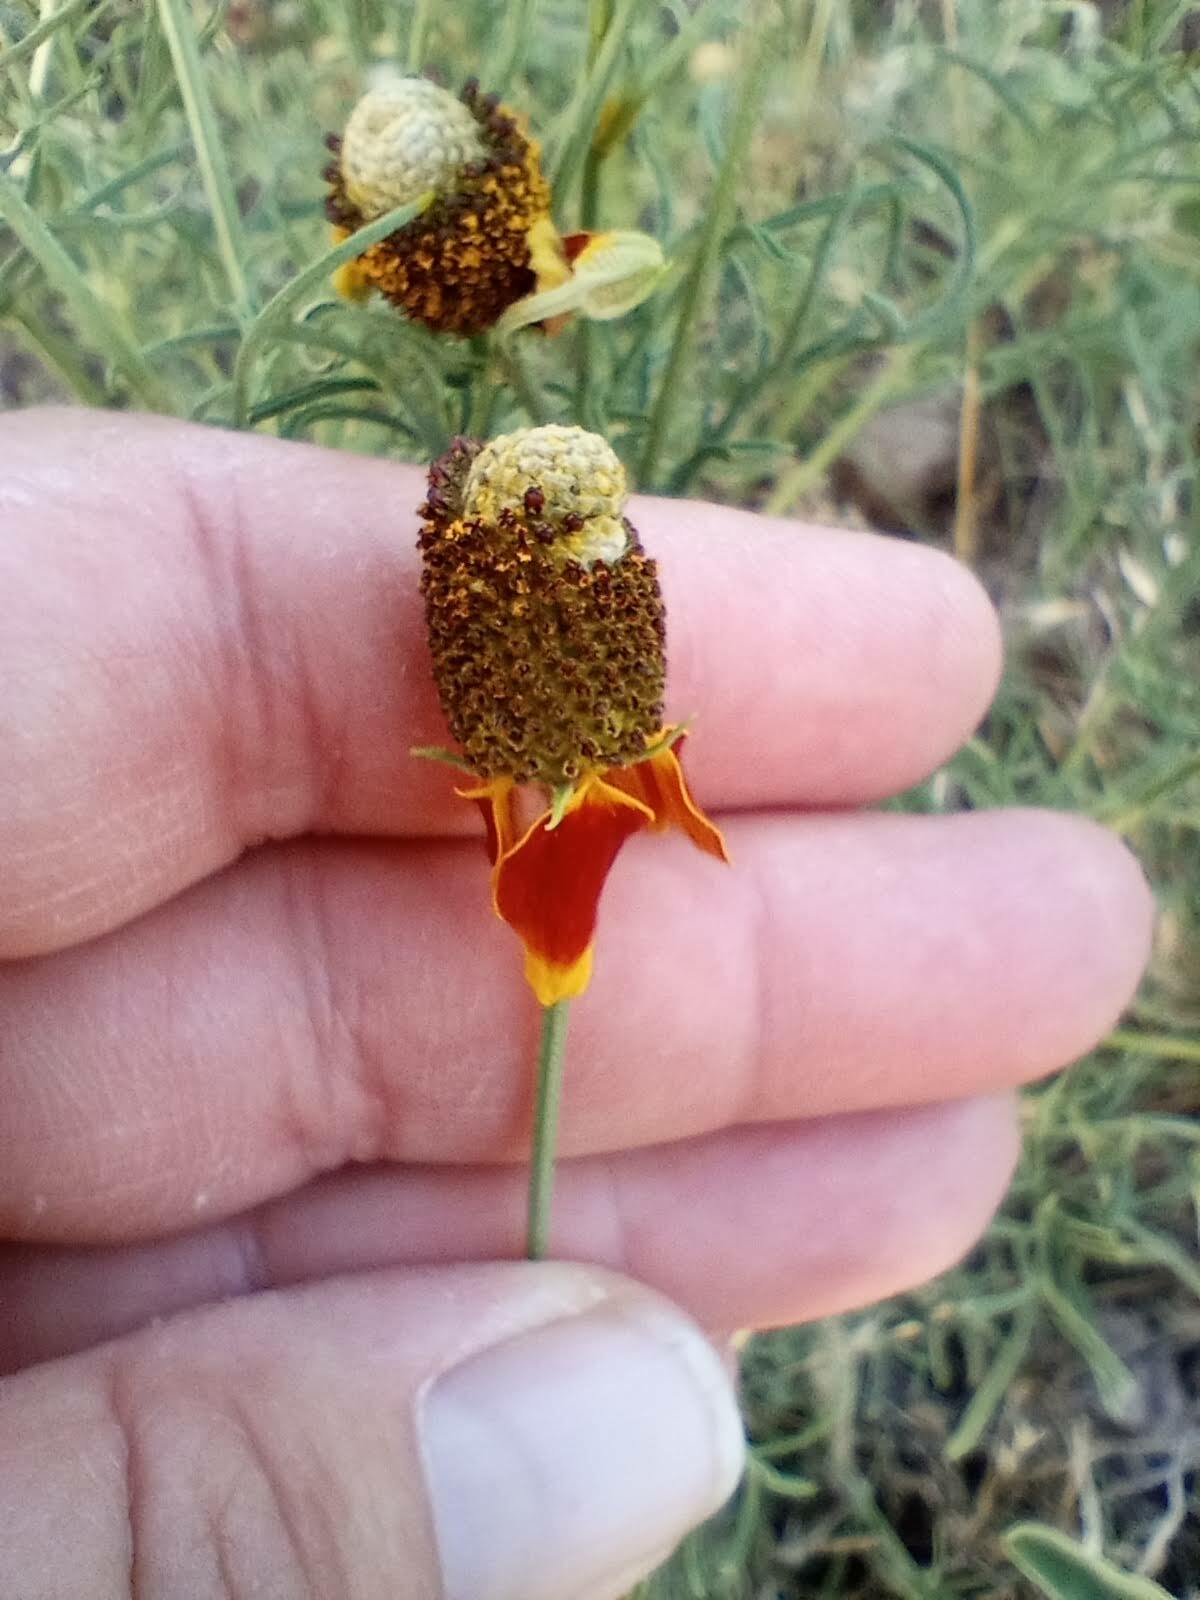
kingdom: Plantae
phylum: Tracheophyta
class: Magnoliopsida
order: Asterales
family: Asteraceae
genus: Ratibida
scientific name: Ratibida columnifera
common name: Prairie coneflower
